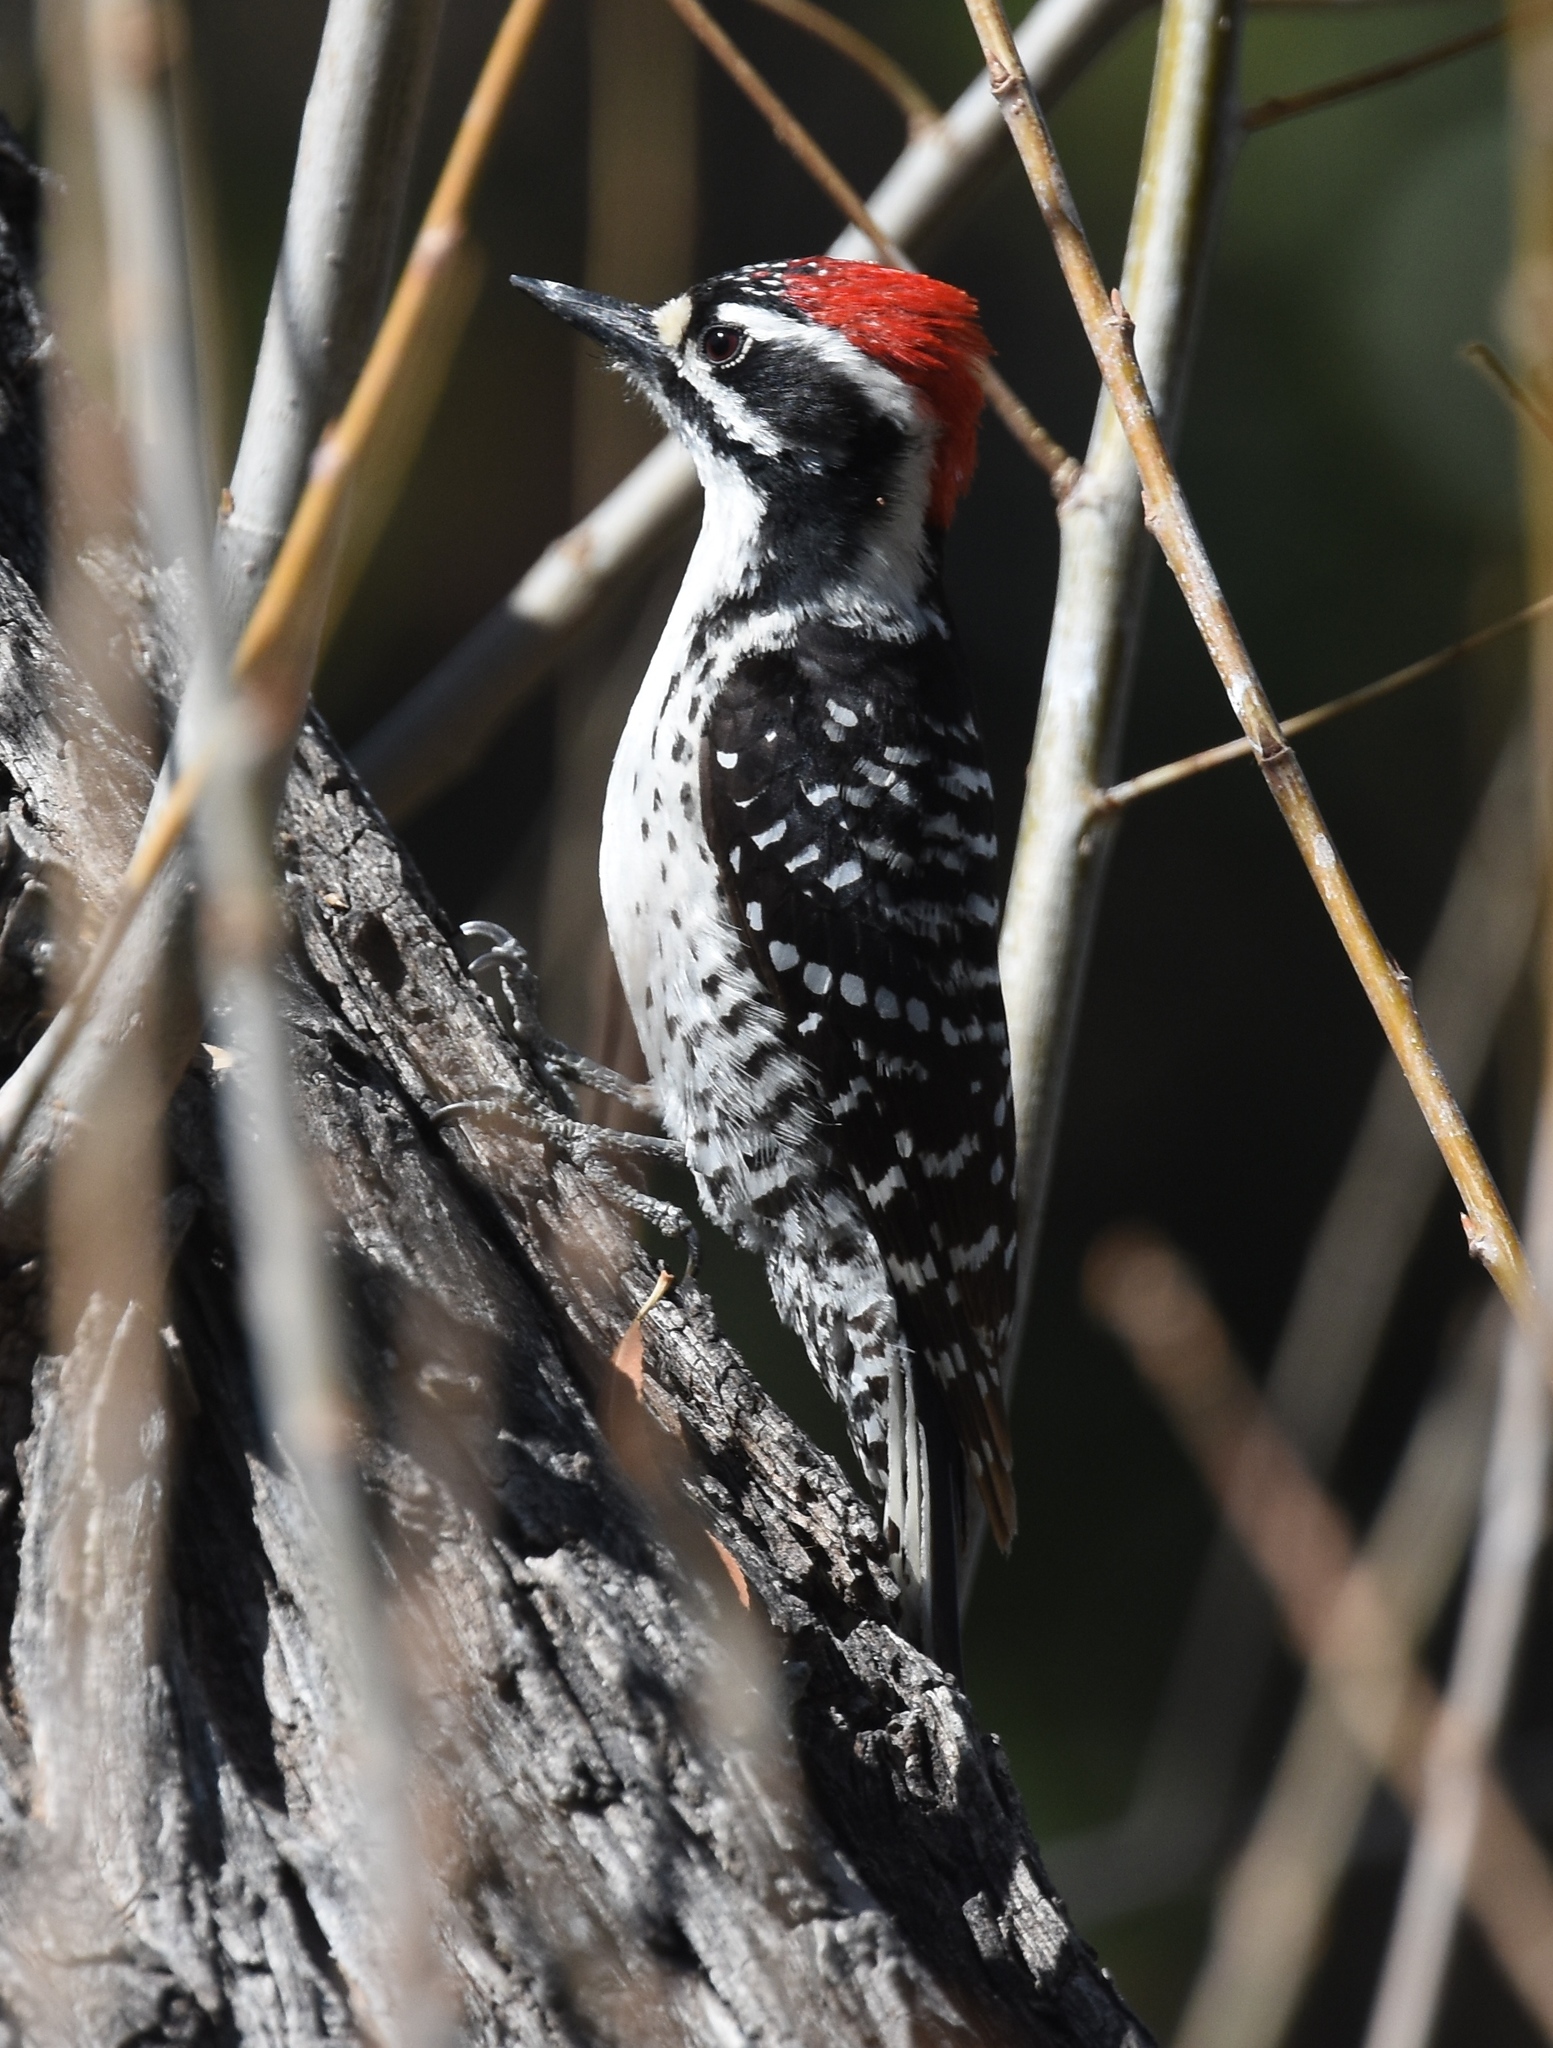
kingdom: Animalia
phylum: Chordata
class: Aves
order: Piciformes
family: Picidae
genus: Dryobates
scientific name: Dryobates nuttallii
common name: Nuttall's woodpecker
